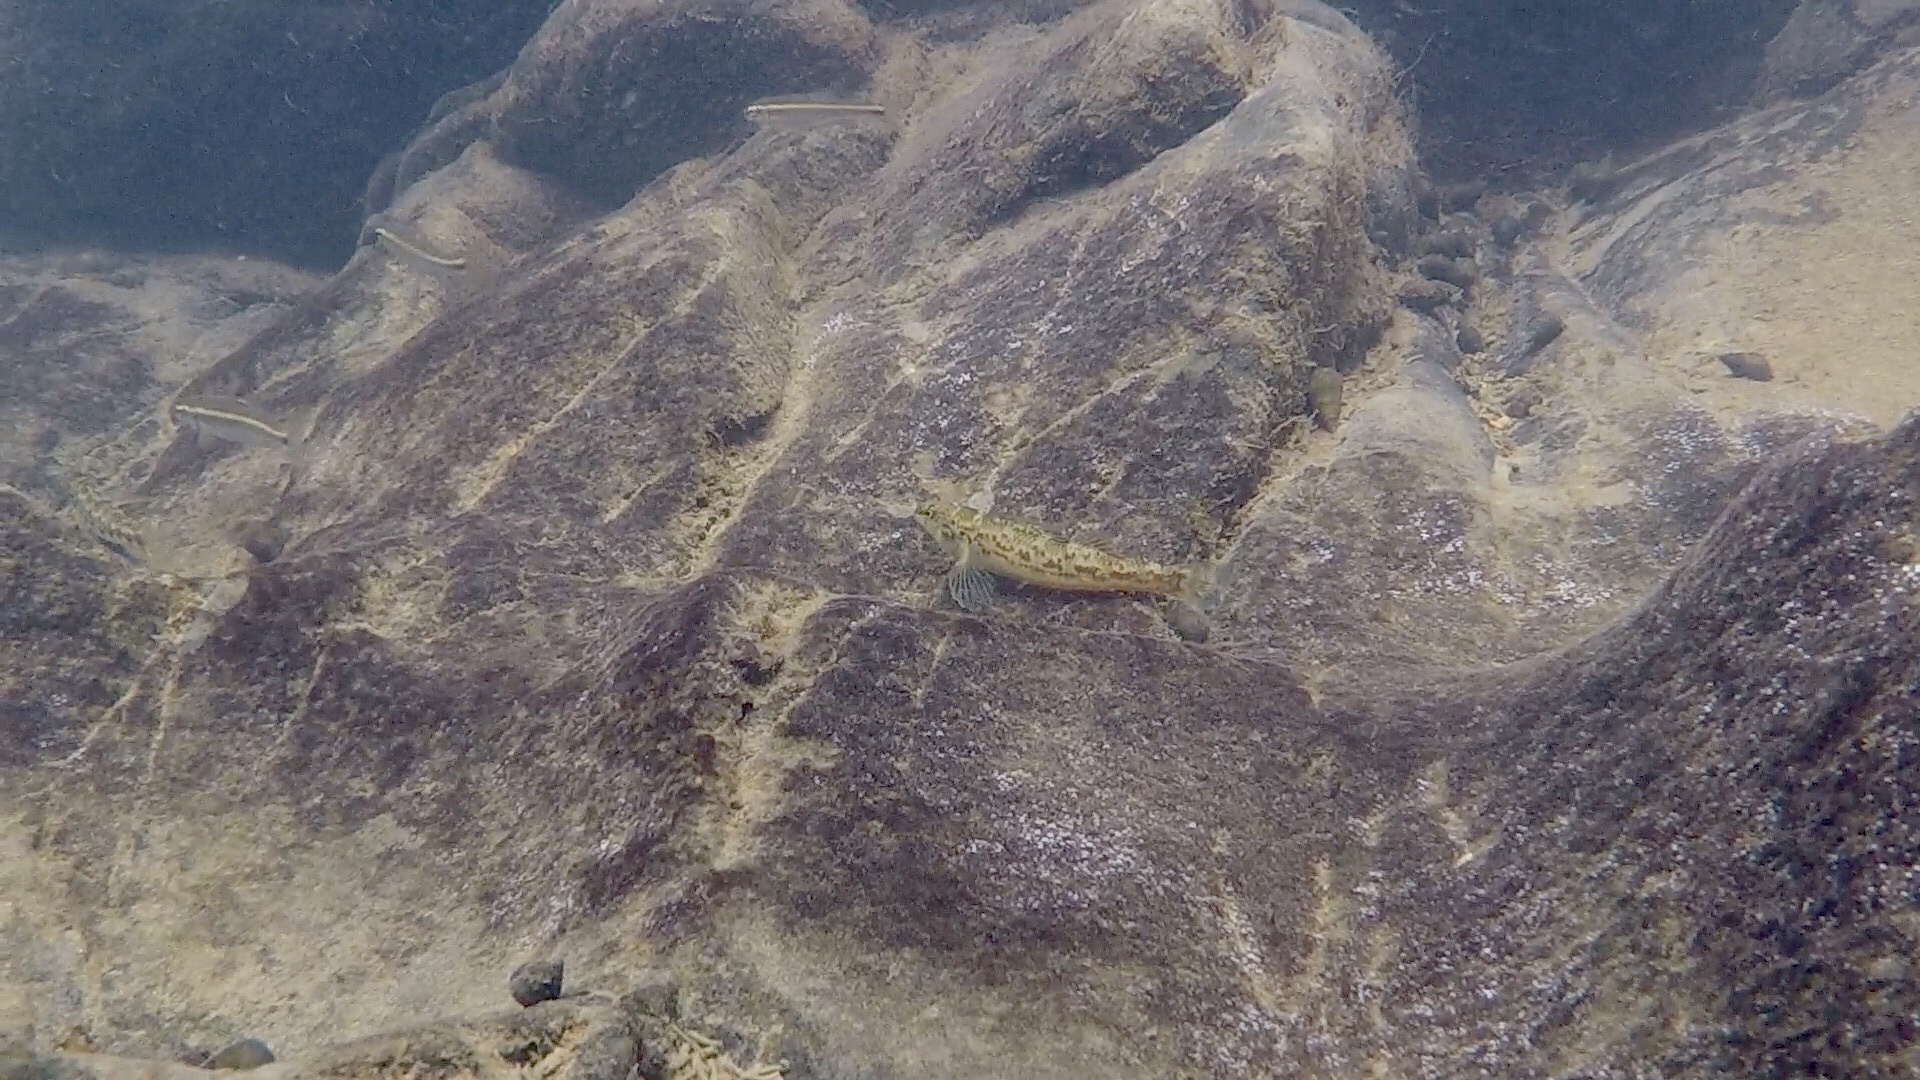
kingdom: Animalia
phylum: Chordata
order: Perciformes
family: Percidae
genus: Etheostoma
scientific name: Etheostoma chermocki
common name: Vermilion darter
